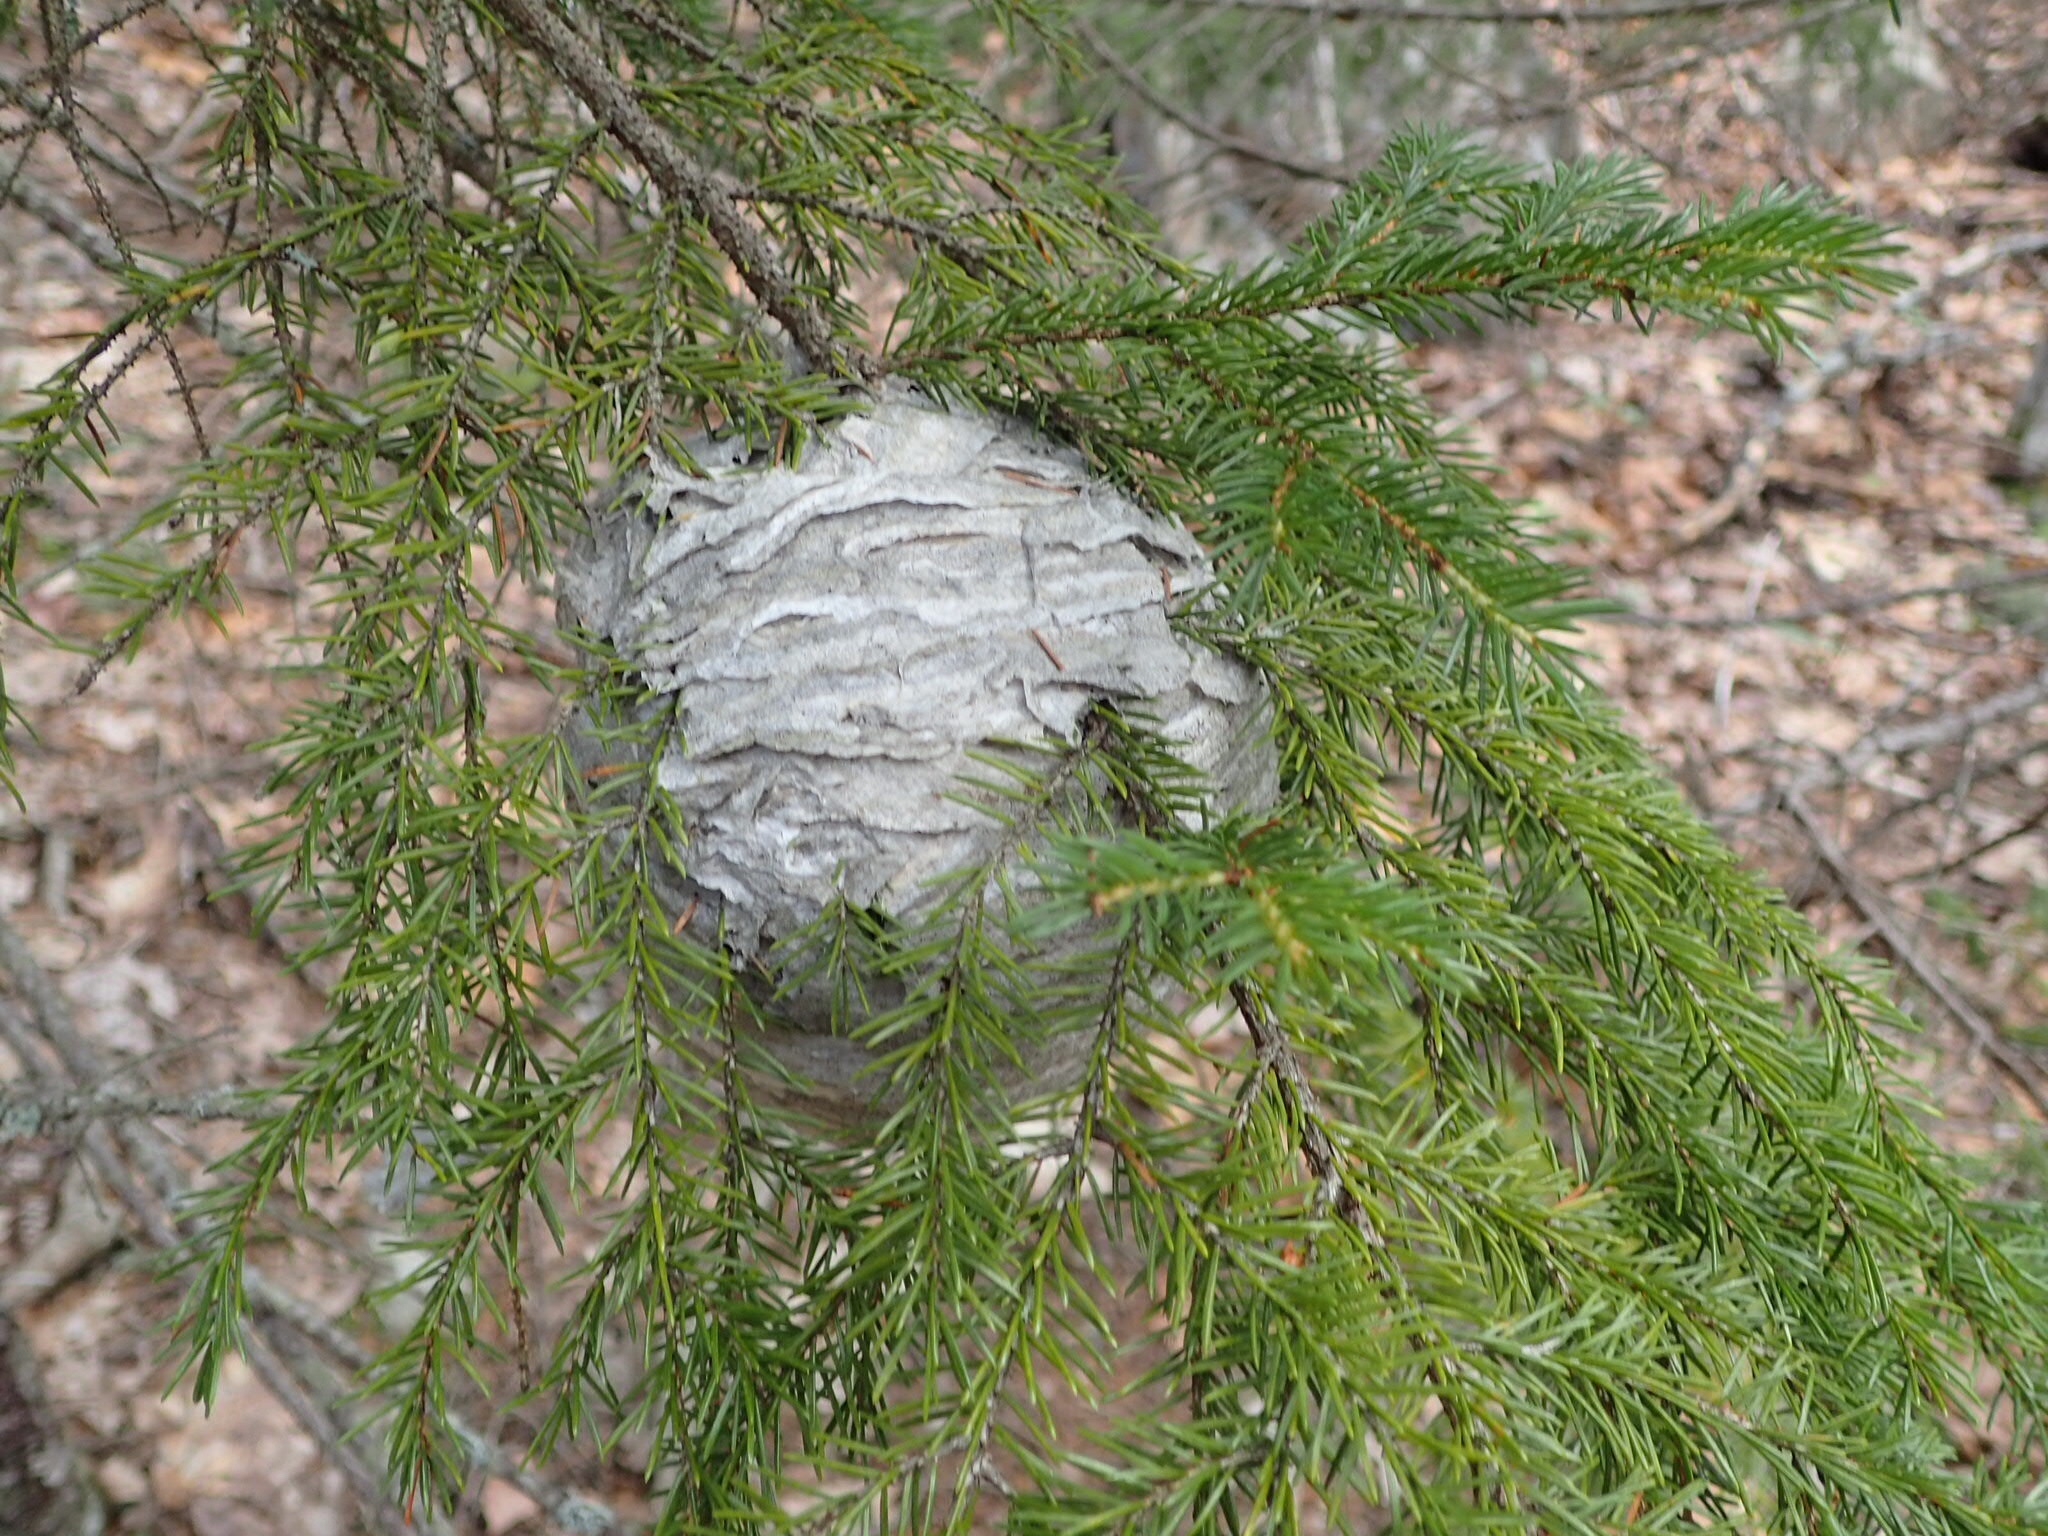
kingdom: Animalia
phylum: Arthropoda
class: Insecta
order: Hymenoptera
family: Vespidae
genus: Dolichovespula
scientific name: Dolichovespula
